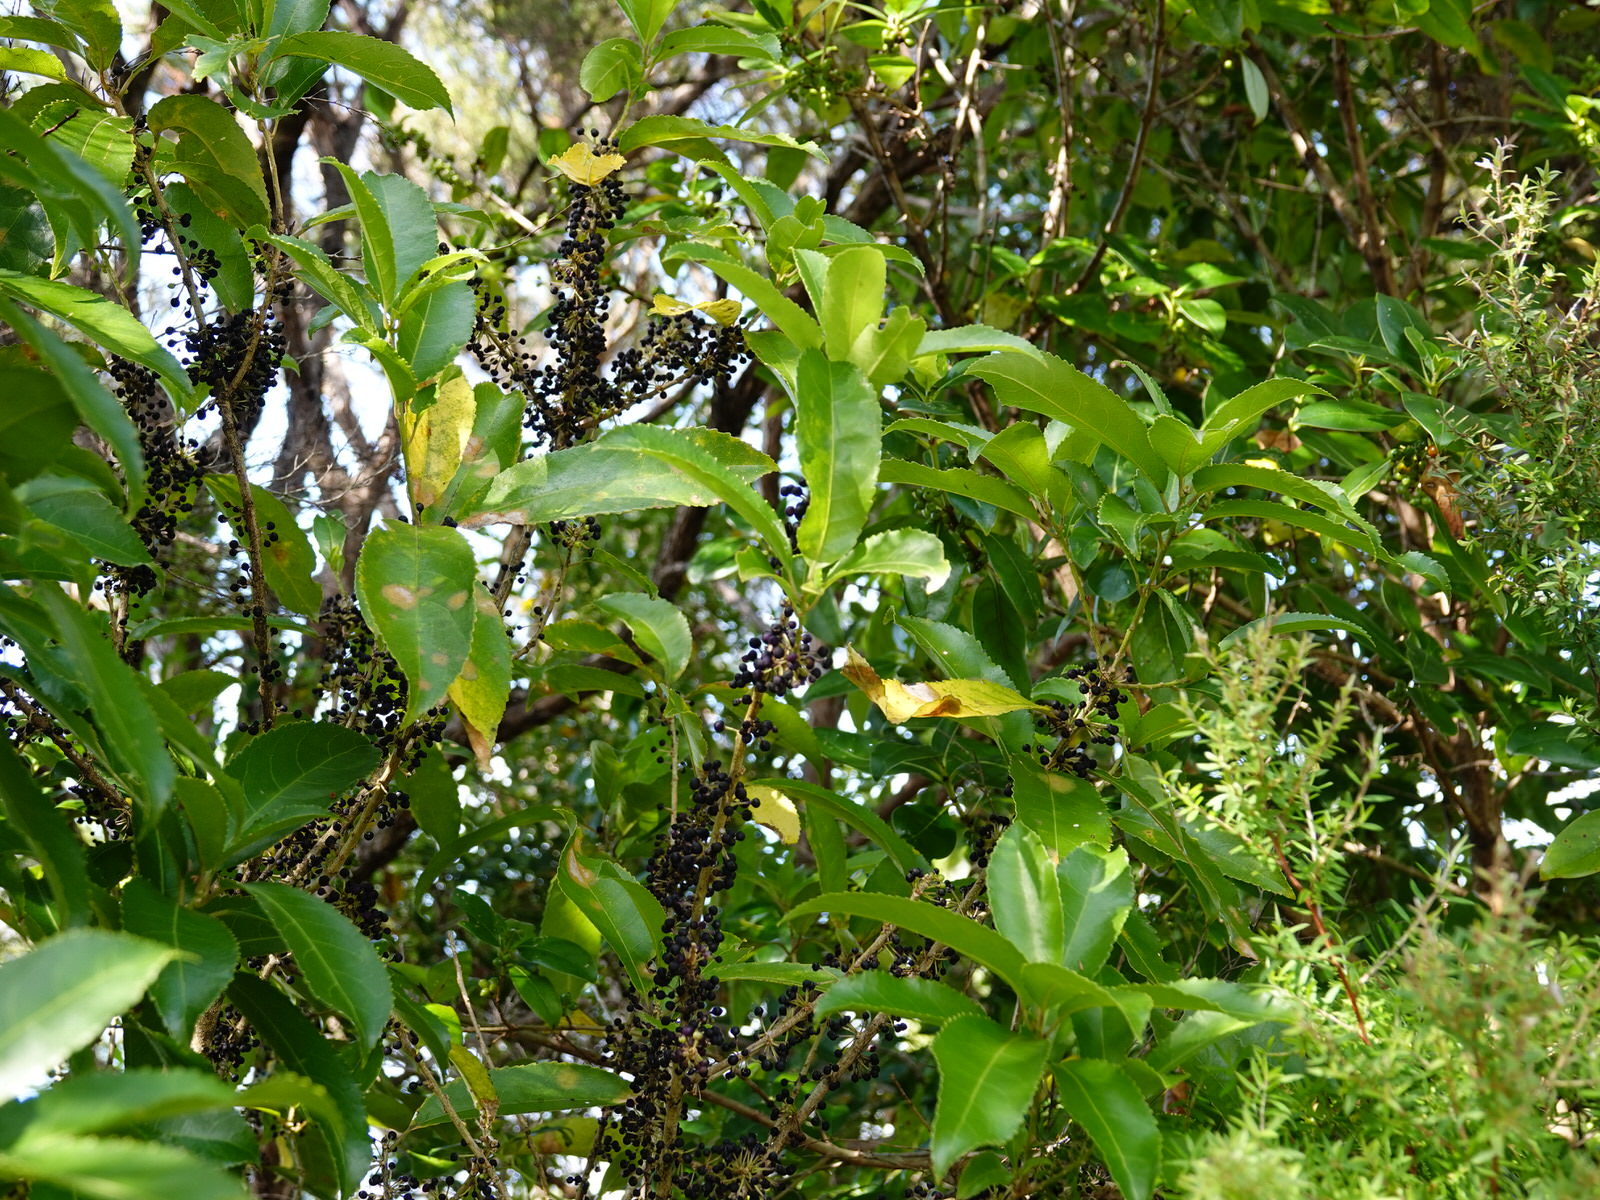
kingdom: Plantae
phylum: Tracheophyta
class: Magnoliopsida
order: Malpighiales
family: Violaceae
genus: Melicytus
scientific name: Melicytus ramiflorus
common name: Mahoe
